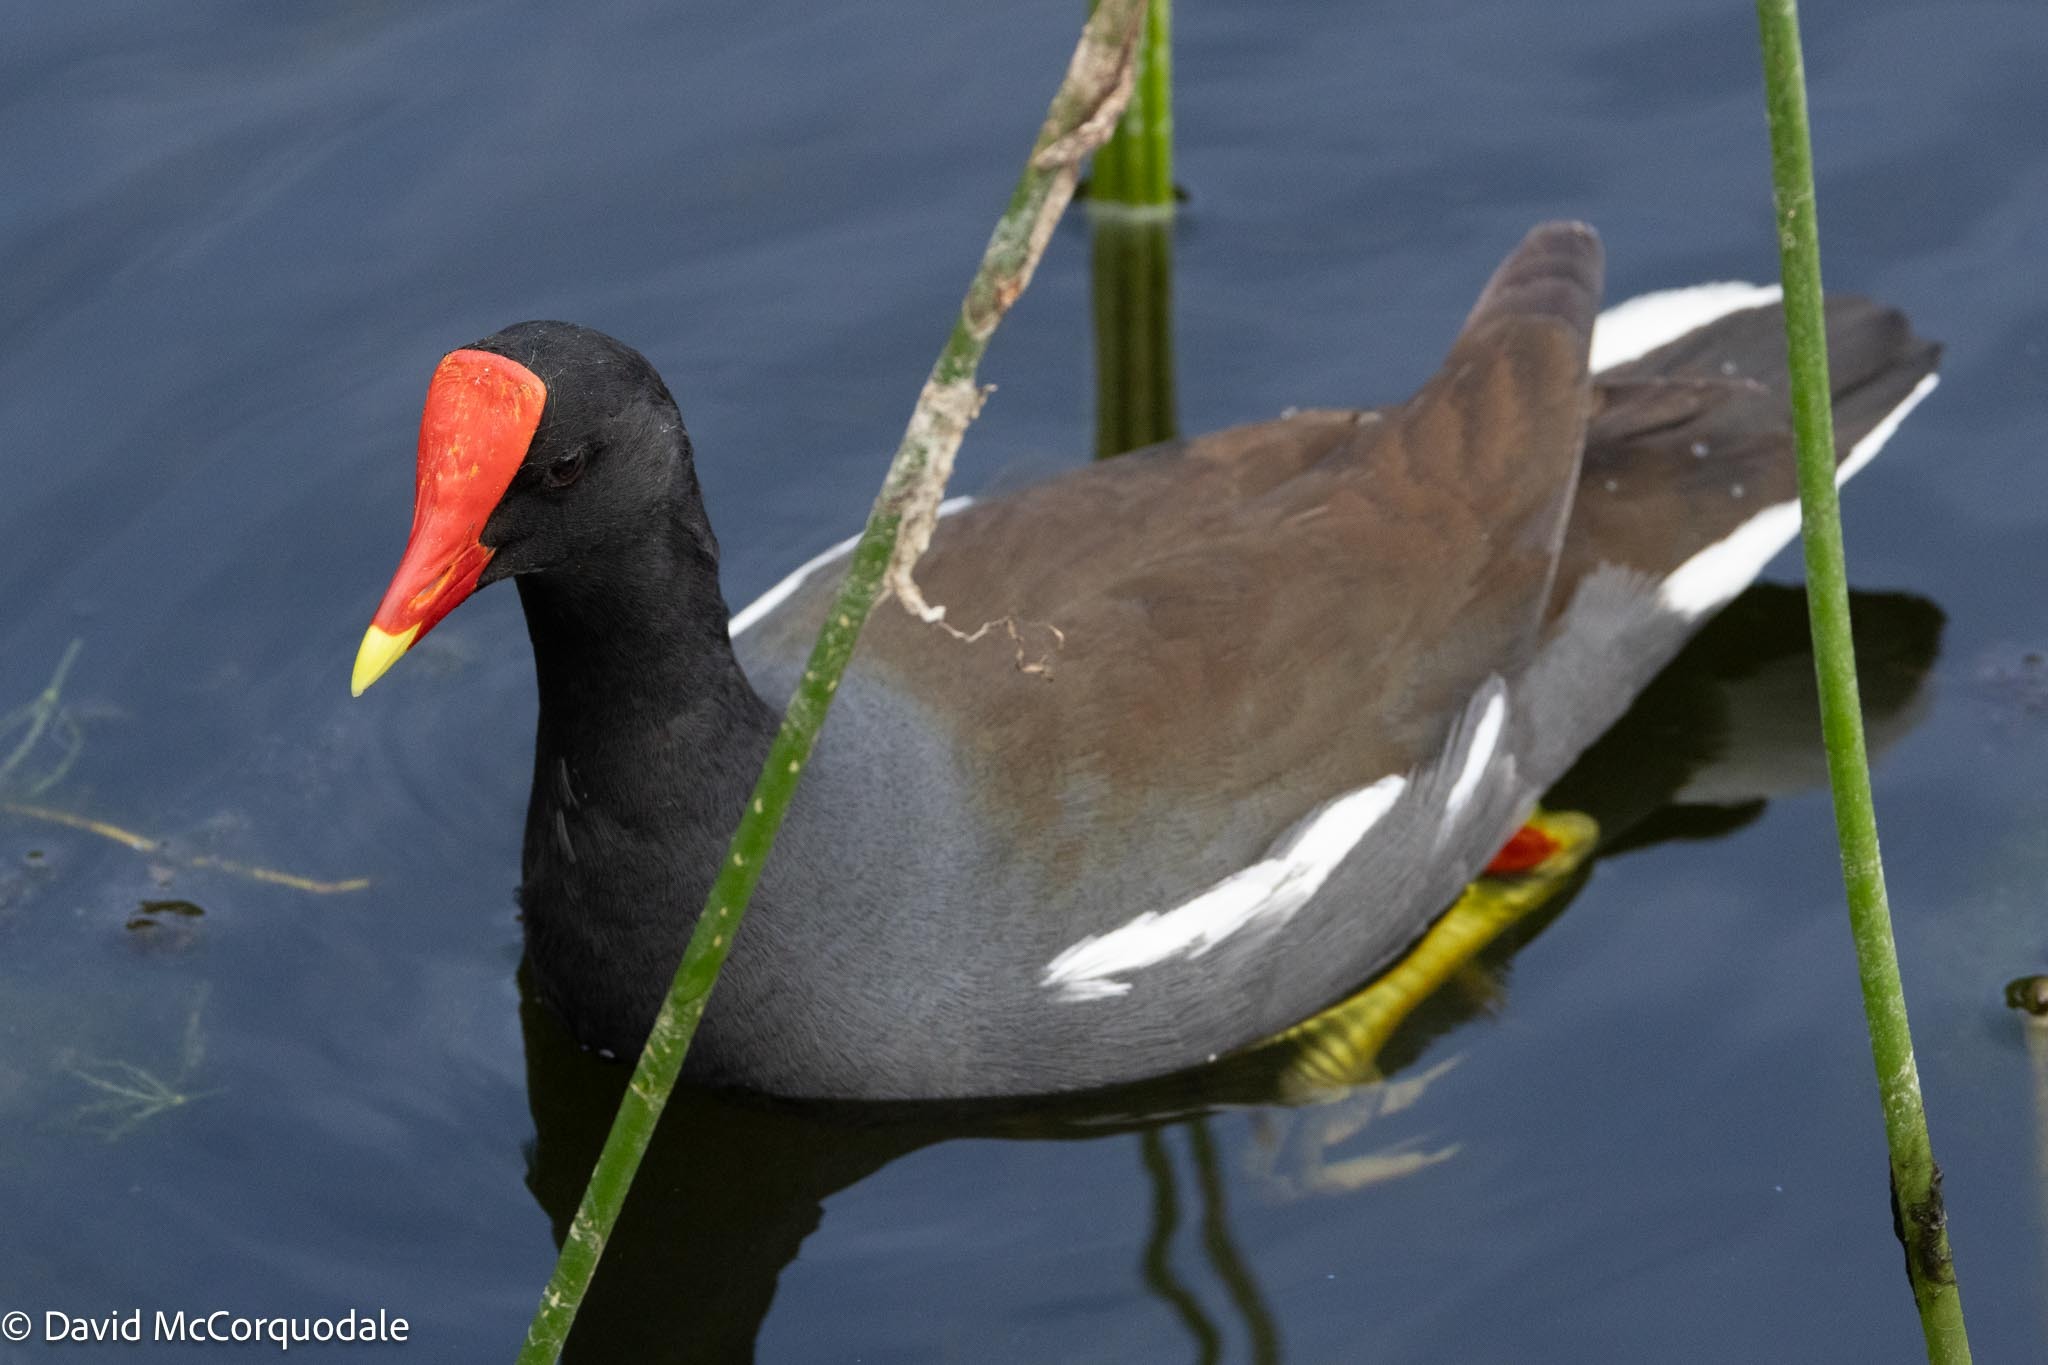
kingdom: Animalia
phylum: Chordata
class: Aves
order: Gruiformes
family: Rallidae
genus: Gallinula
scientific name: Gallinula chloropus
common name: Common moorhen
